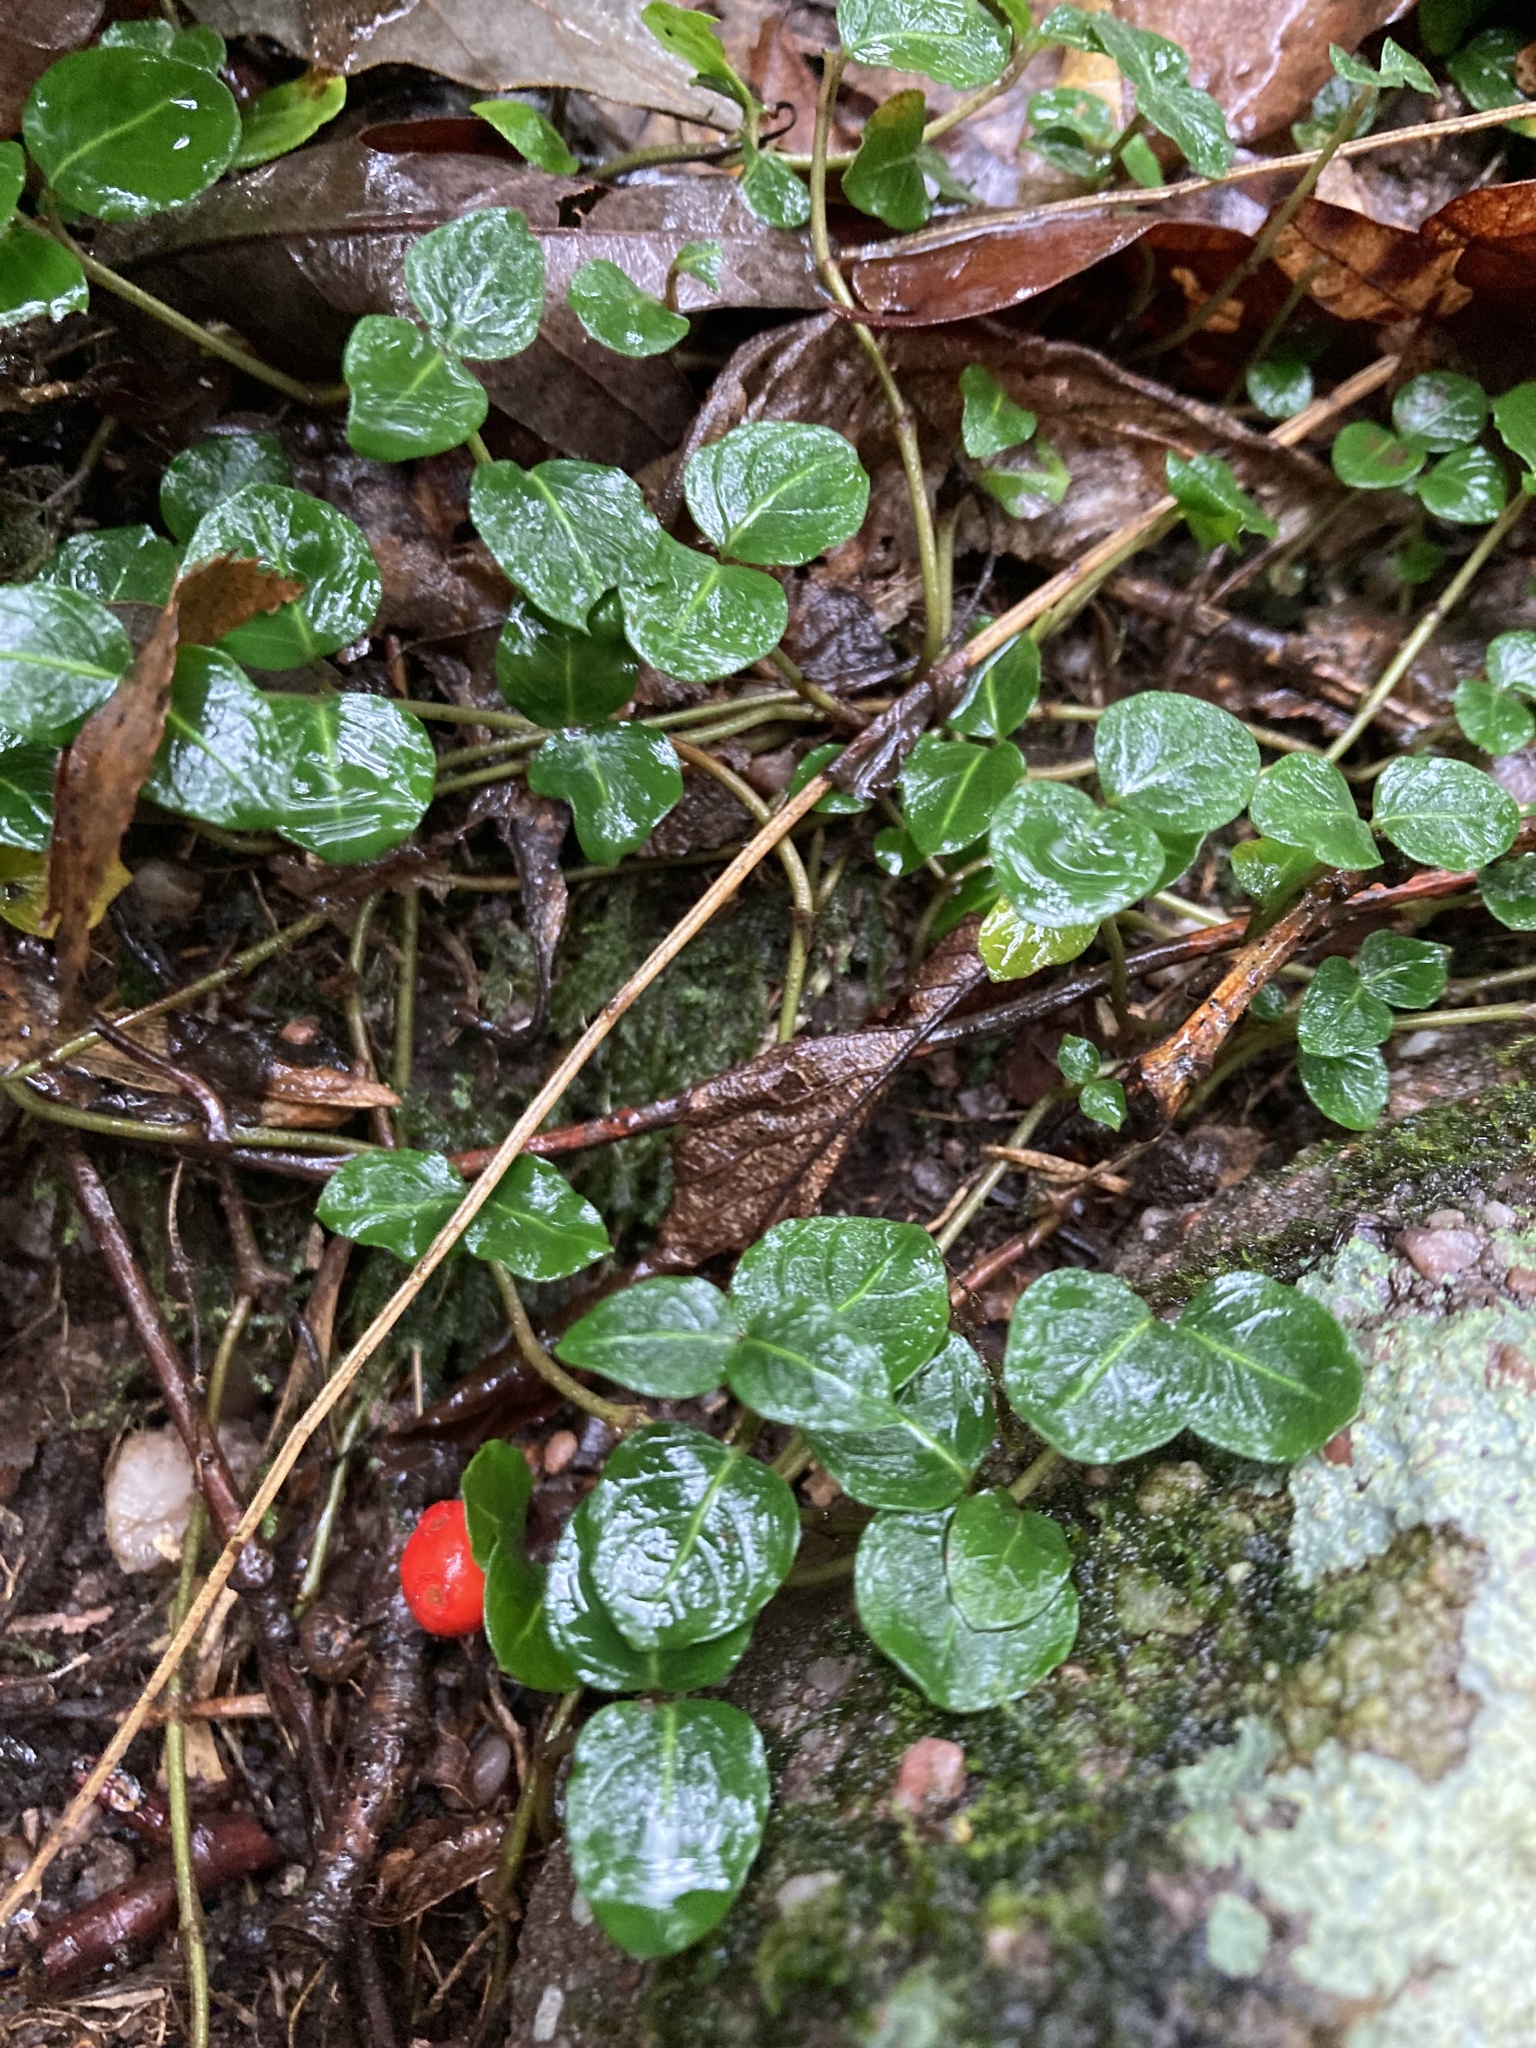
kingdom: Plantae
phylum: Tracheophyta
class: Magnoliopsida
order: Gentianales
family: Rubiaceae
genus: Mitchella
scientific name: Mitchella repens
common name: Partridge-berry
